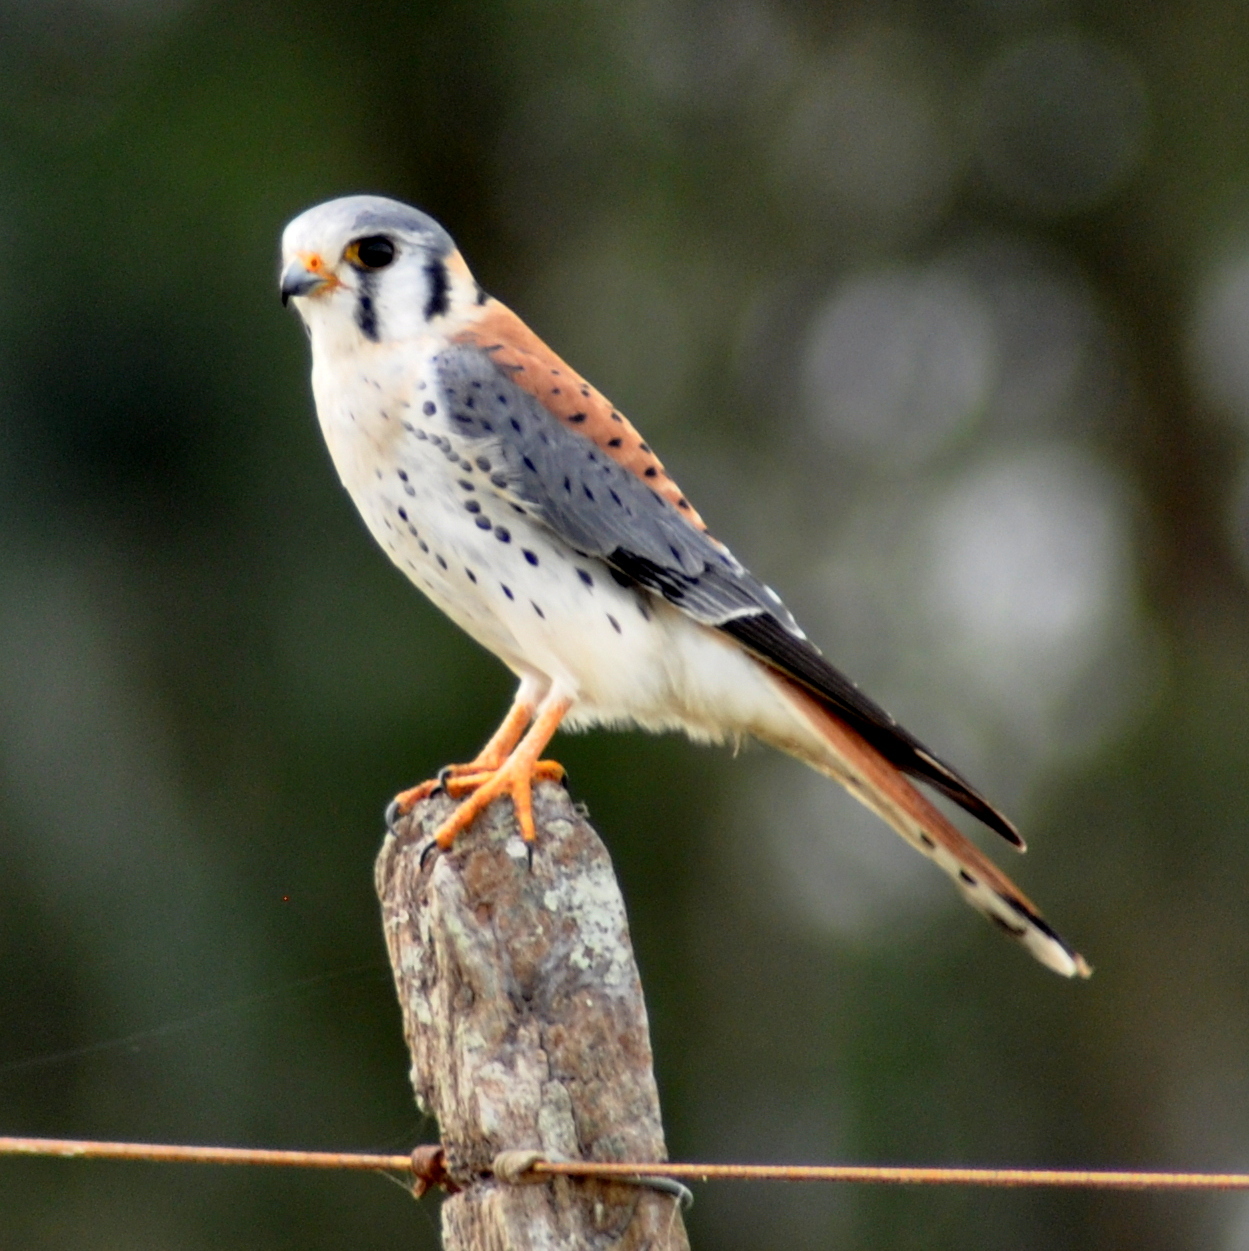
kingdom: Animalia
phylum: Chordata
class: Aves
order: Falconiformes
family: Falconidae
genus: Falco
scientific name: Falco sparverius
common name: American kestrel
